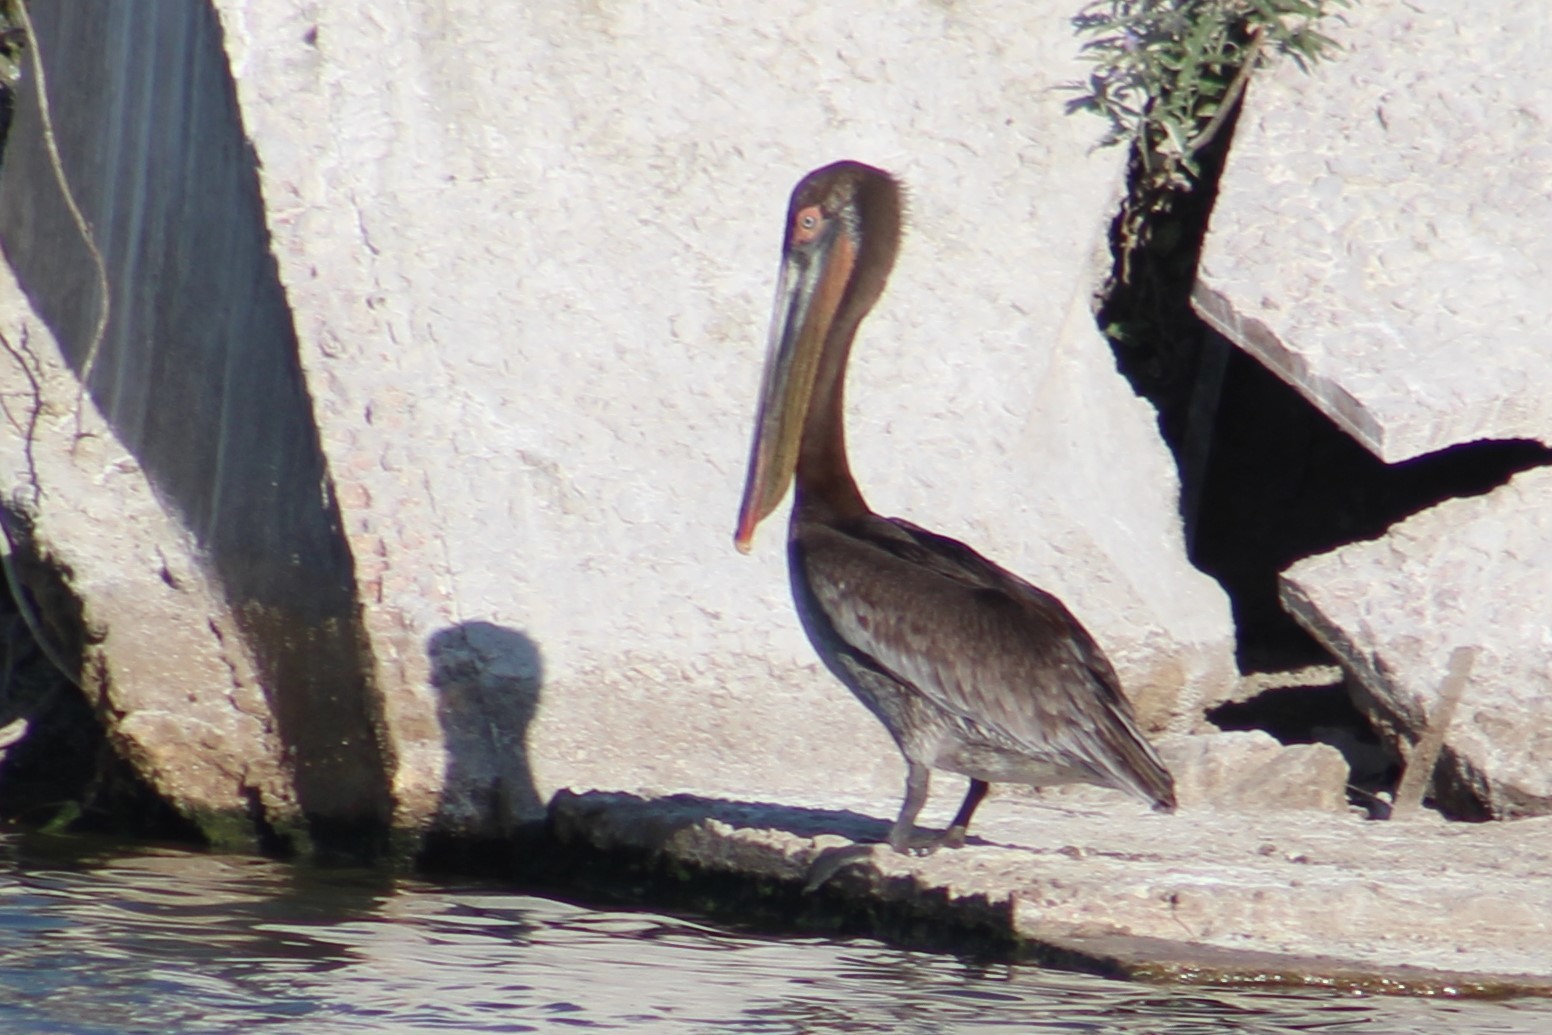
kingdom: Animalia
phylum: Chordata
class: Aves
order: Pelecaniformes
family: Pelecanidae
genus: Pelecanus
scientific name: Pelecanus occidentalis
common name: Brown pelican
